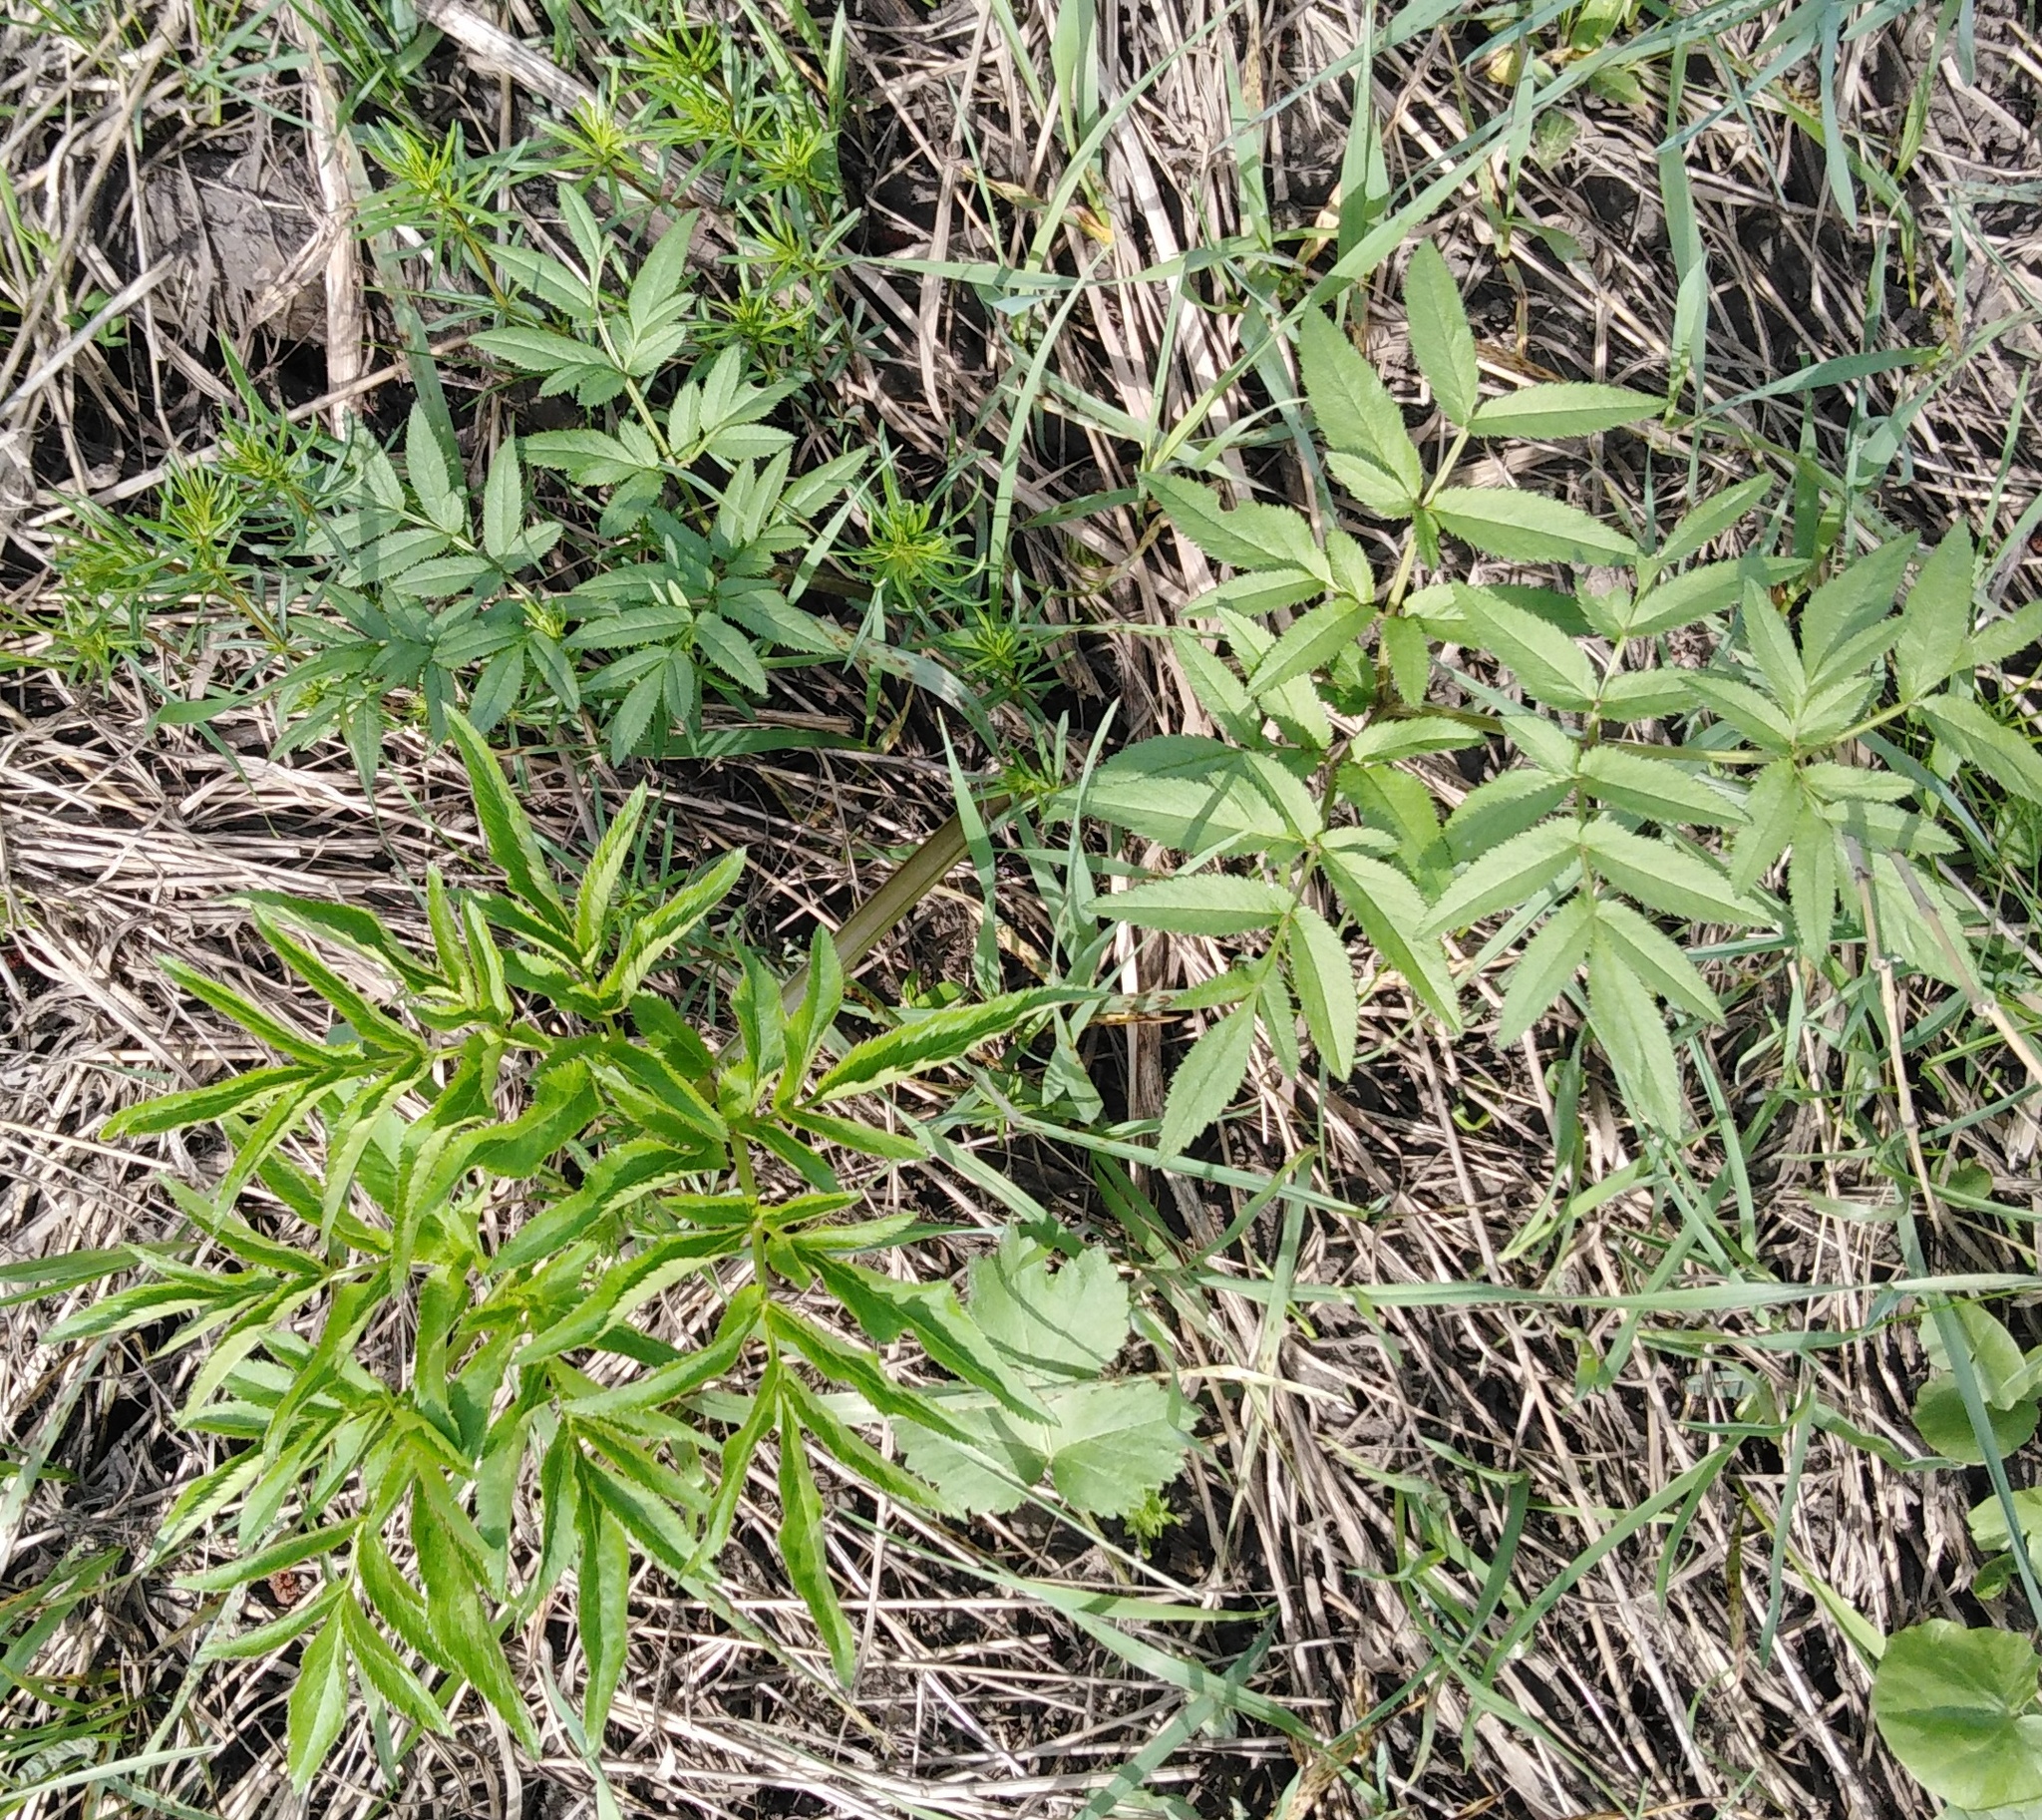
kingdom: Plantae
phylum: Tracheophyta
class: Magnoliopsida
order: Apiales
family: Apiaceae
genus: Angelica
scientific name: Angelica sylvestris
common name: Wild angelica
